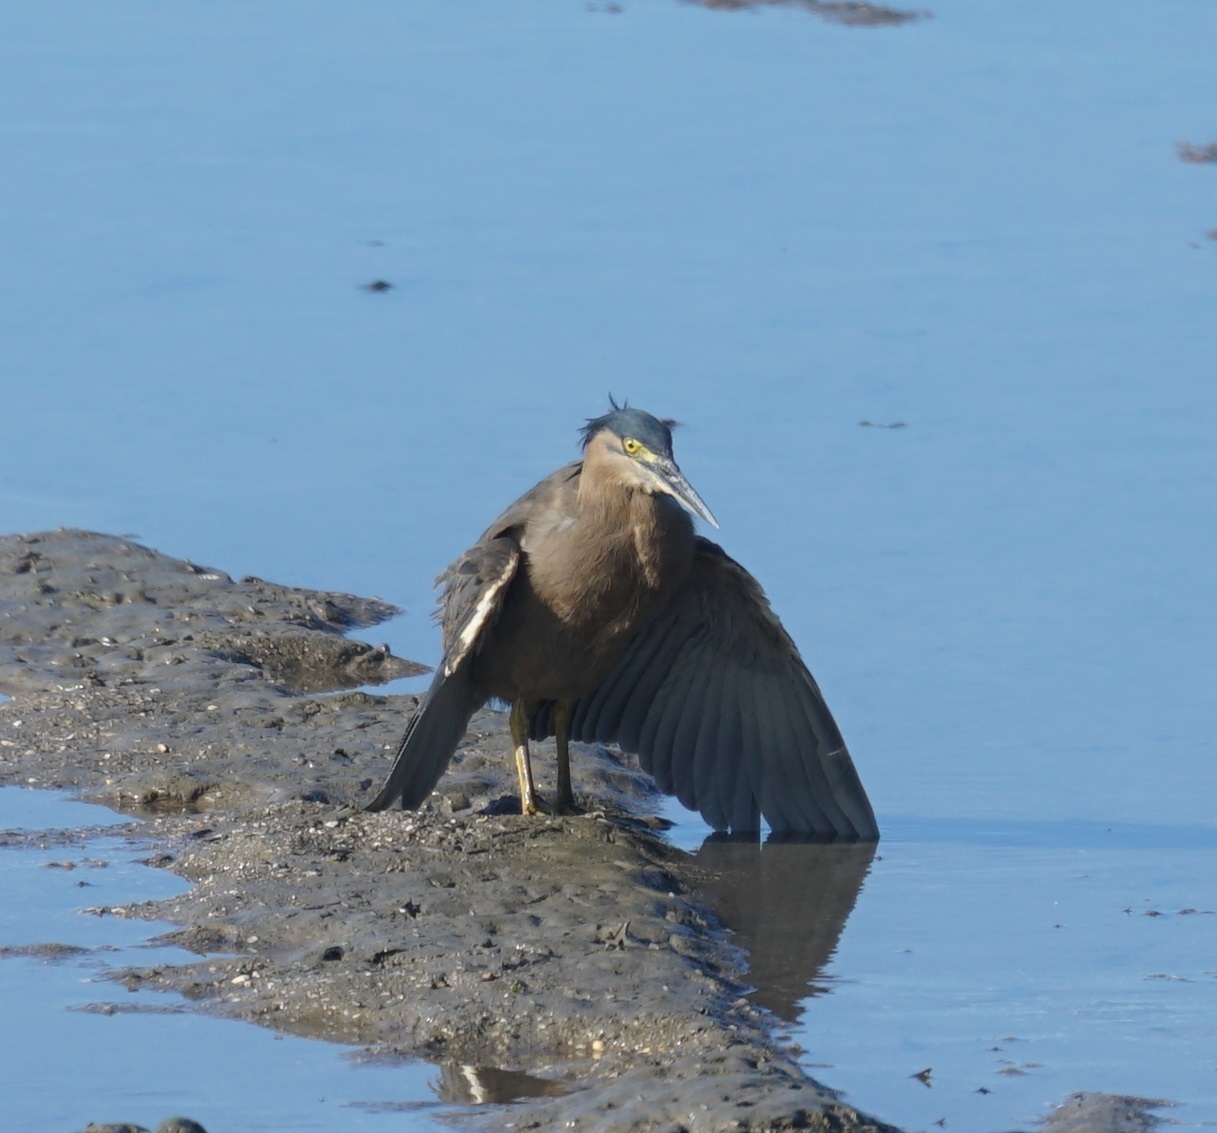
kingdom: Animalia
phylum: Chordata
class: Aves
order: Pelecaniformes
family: Ardeidae
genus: Butorides
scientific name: Butorides striata
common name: Striated heron
